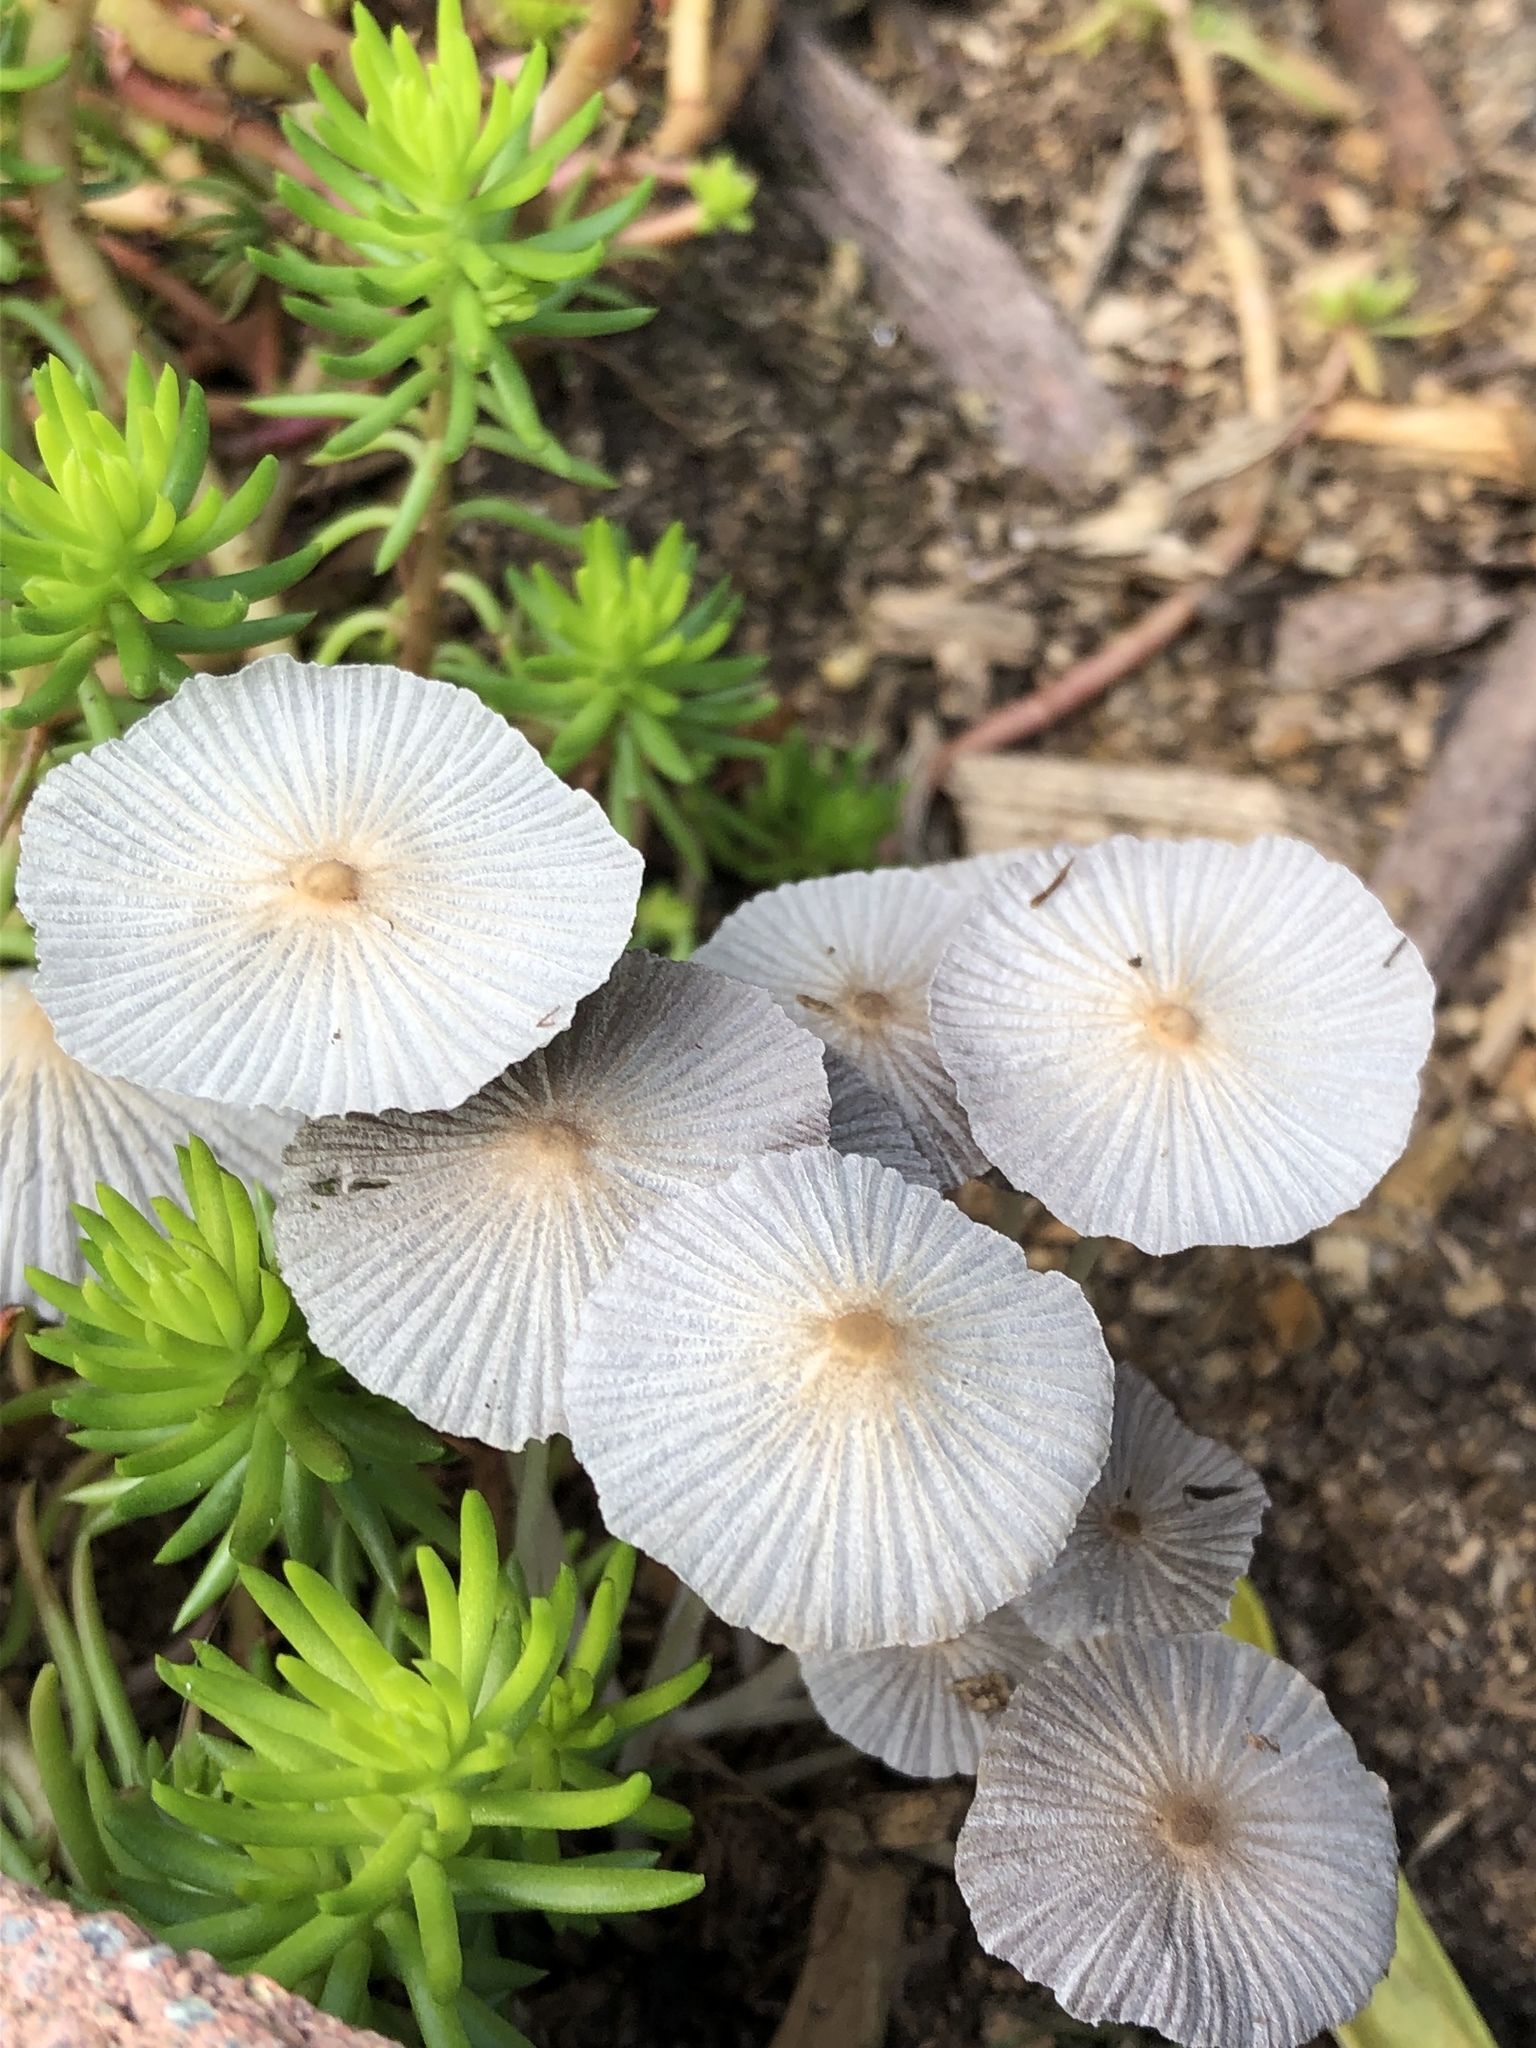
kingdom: Fungi
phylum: Basidiomycota
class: Agaricomycetes
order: Agaricales
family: Psathyrellaceae
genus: Parasola
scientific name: Parasola plicatilis
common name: Pleated inkcap
